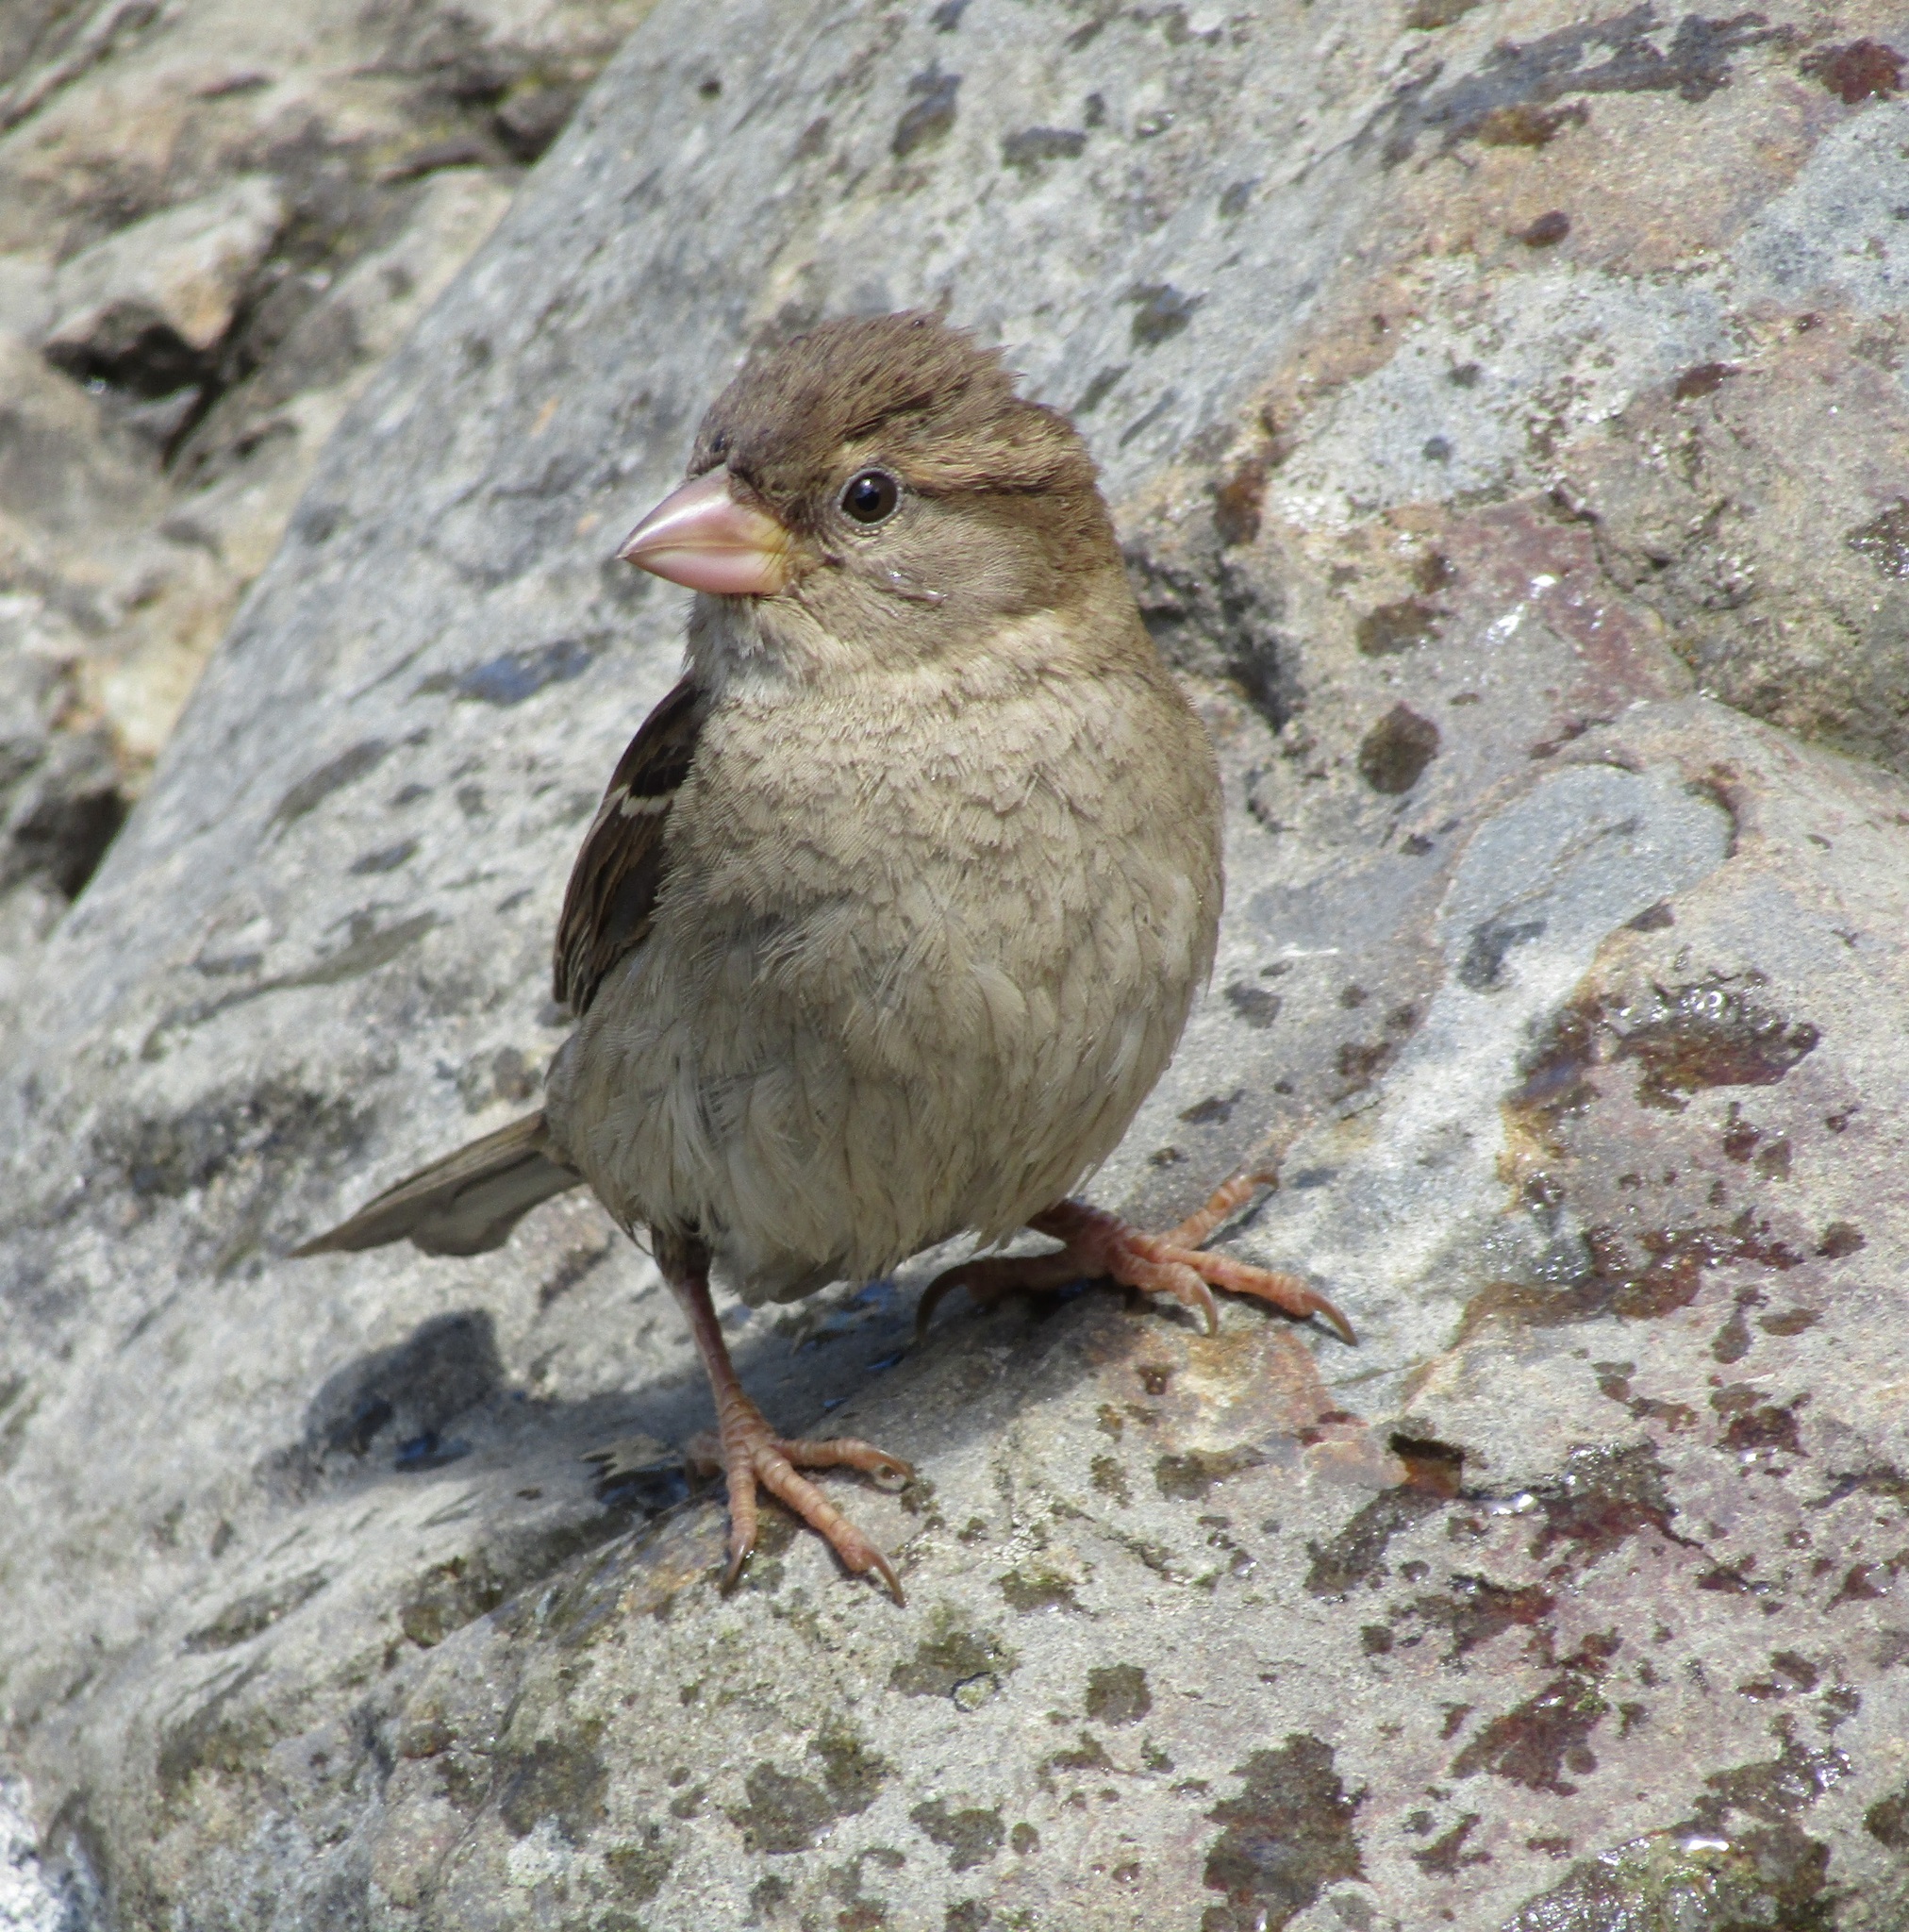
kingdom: Animalia
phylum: Chordata
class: Aves
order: Passeriformes
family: Passeridae
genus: Passer
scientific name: Passer domesticus
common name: House sparrow
